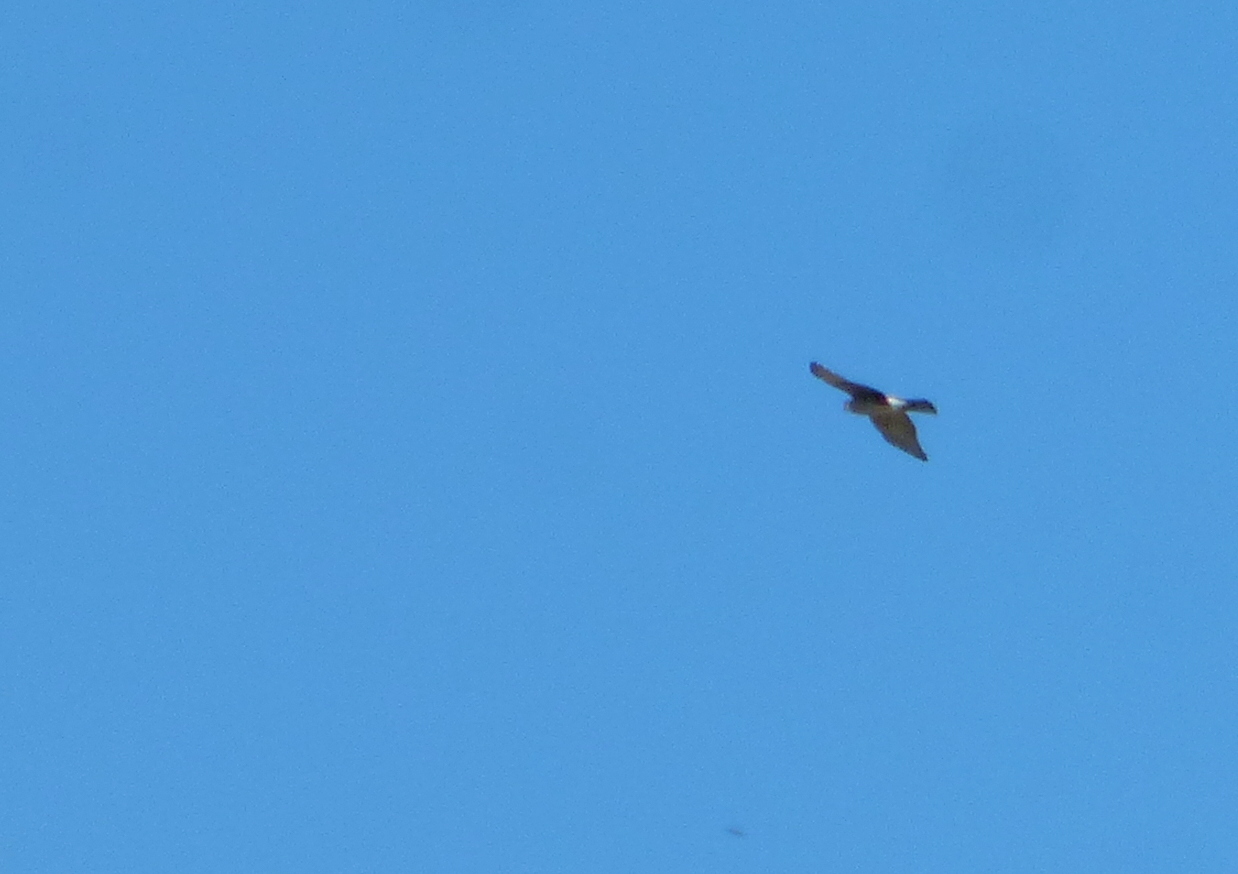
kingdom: Animalia
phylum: Chordata
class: Aves
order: Accipitriformes
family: Accipitridae
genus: Accipiter
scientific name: Accipiter striatus
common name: Sharp-shinned hawk
